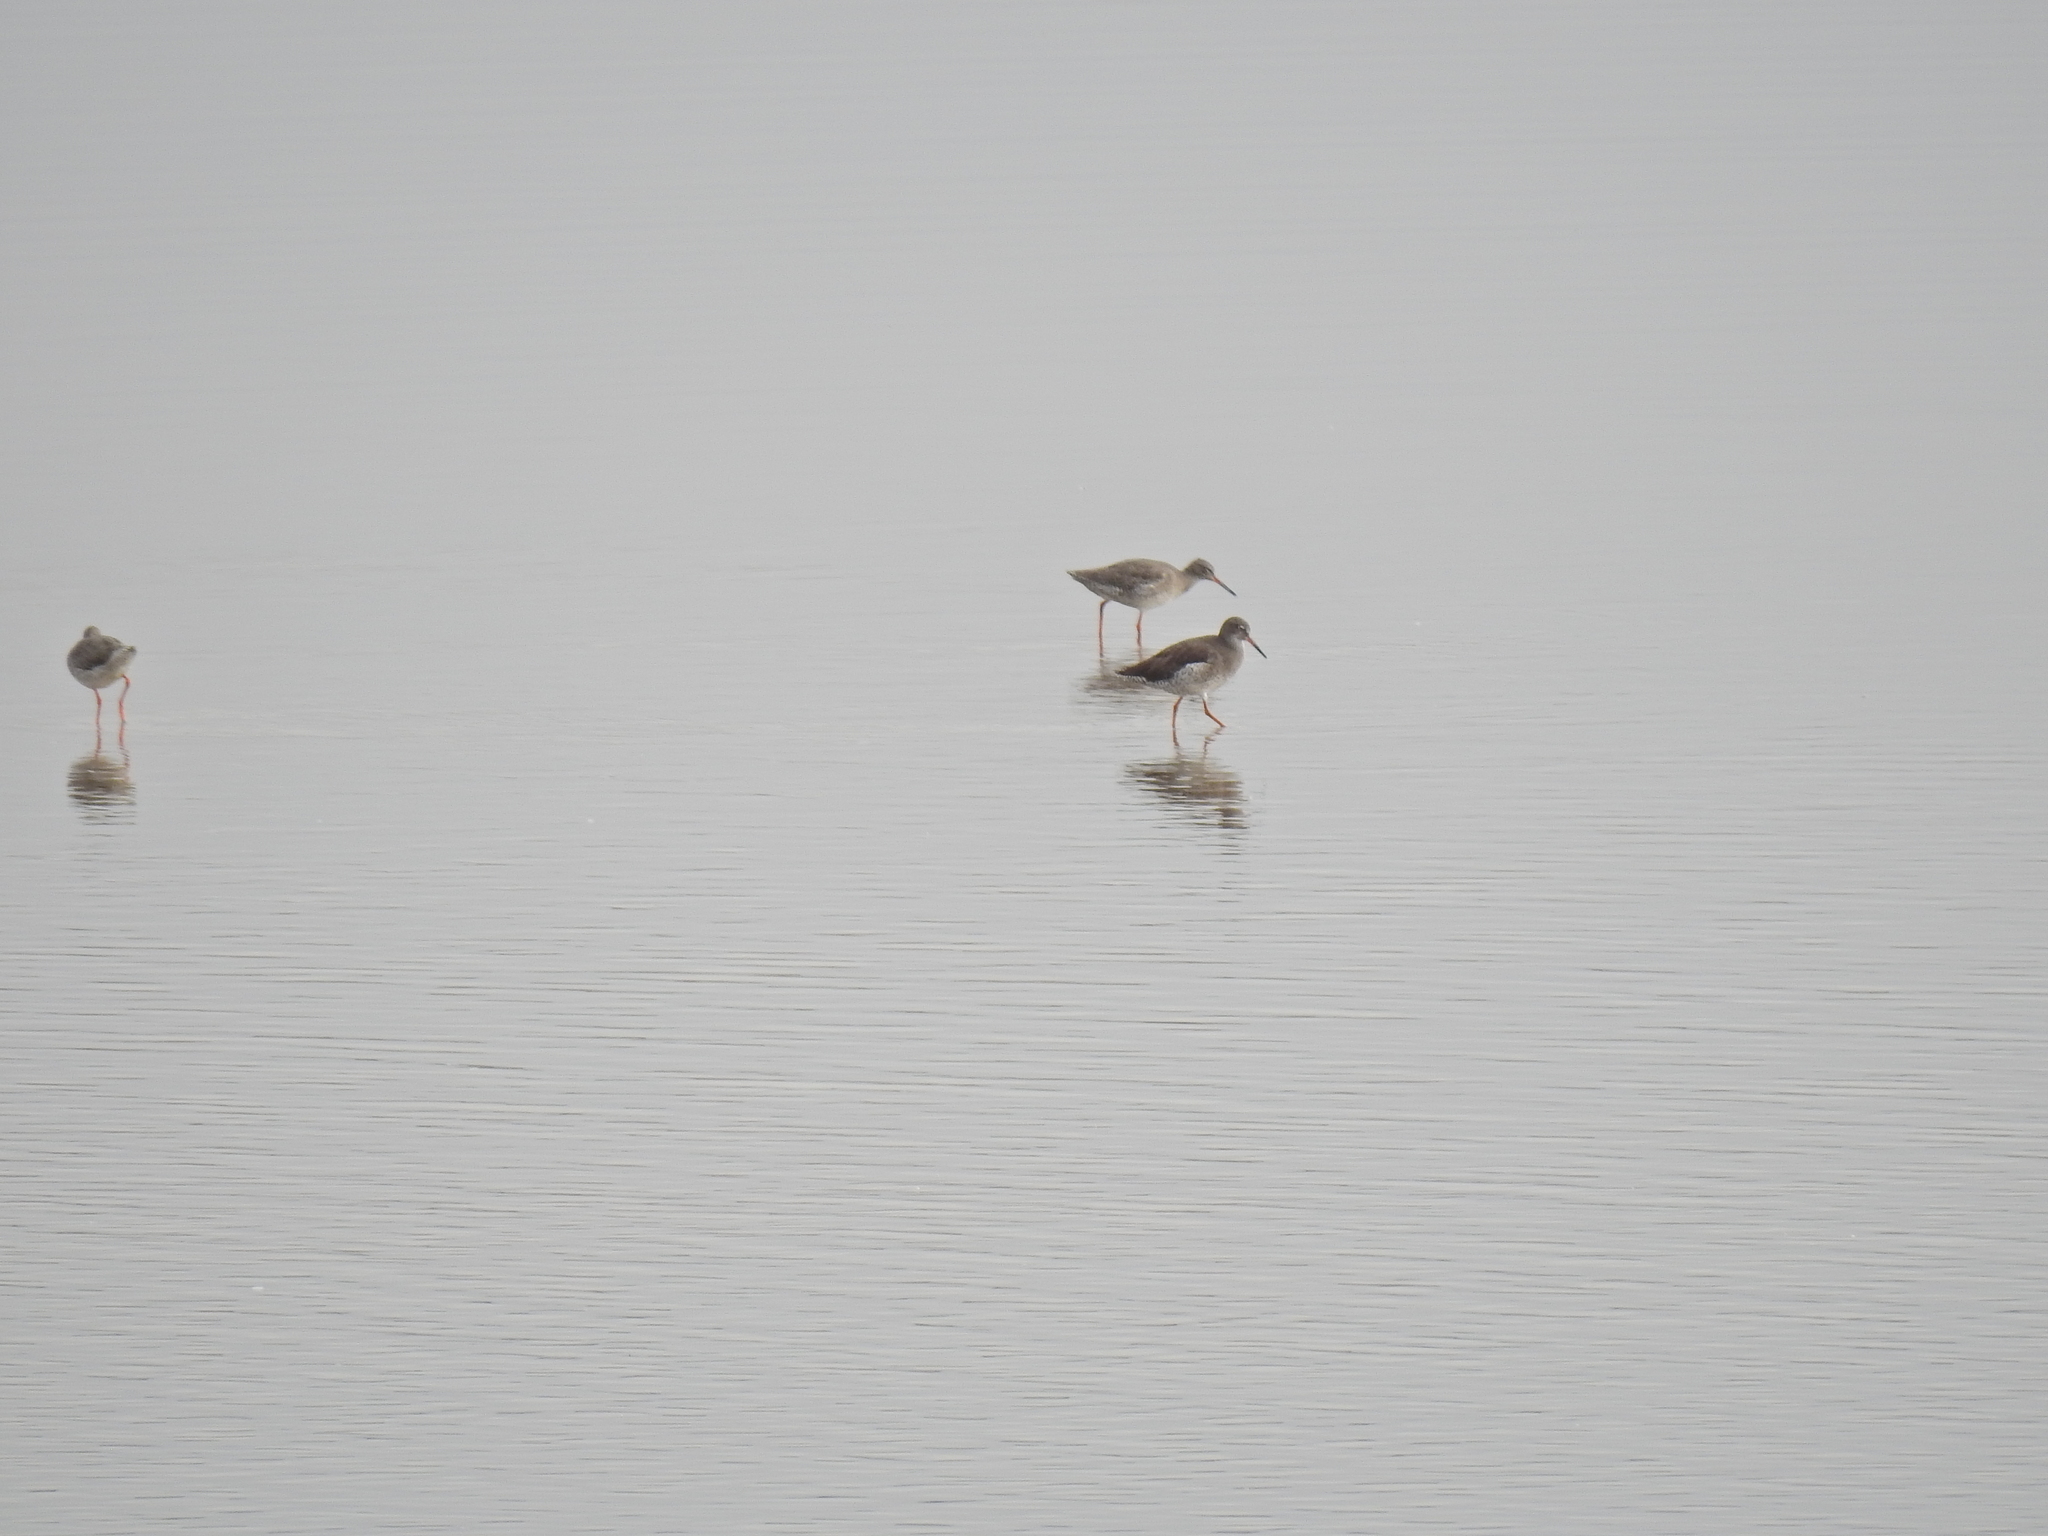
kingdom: Animalia
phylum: Chordata
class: Aves
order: Charadriiformes
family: Scolopacidae
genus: Tringa
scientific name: Tringa totanus
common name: Common redshank
